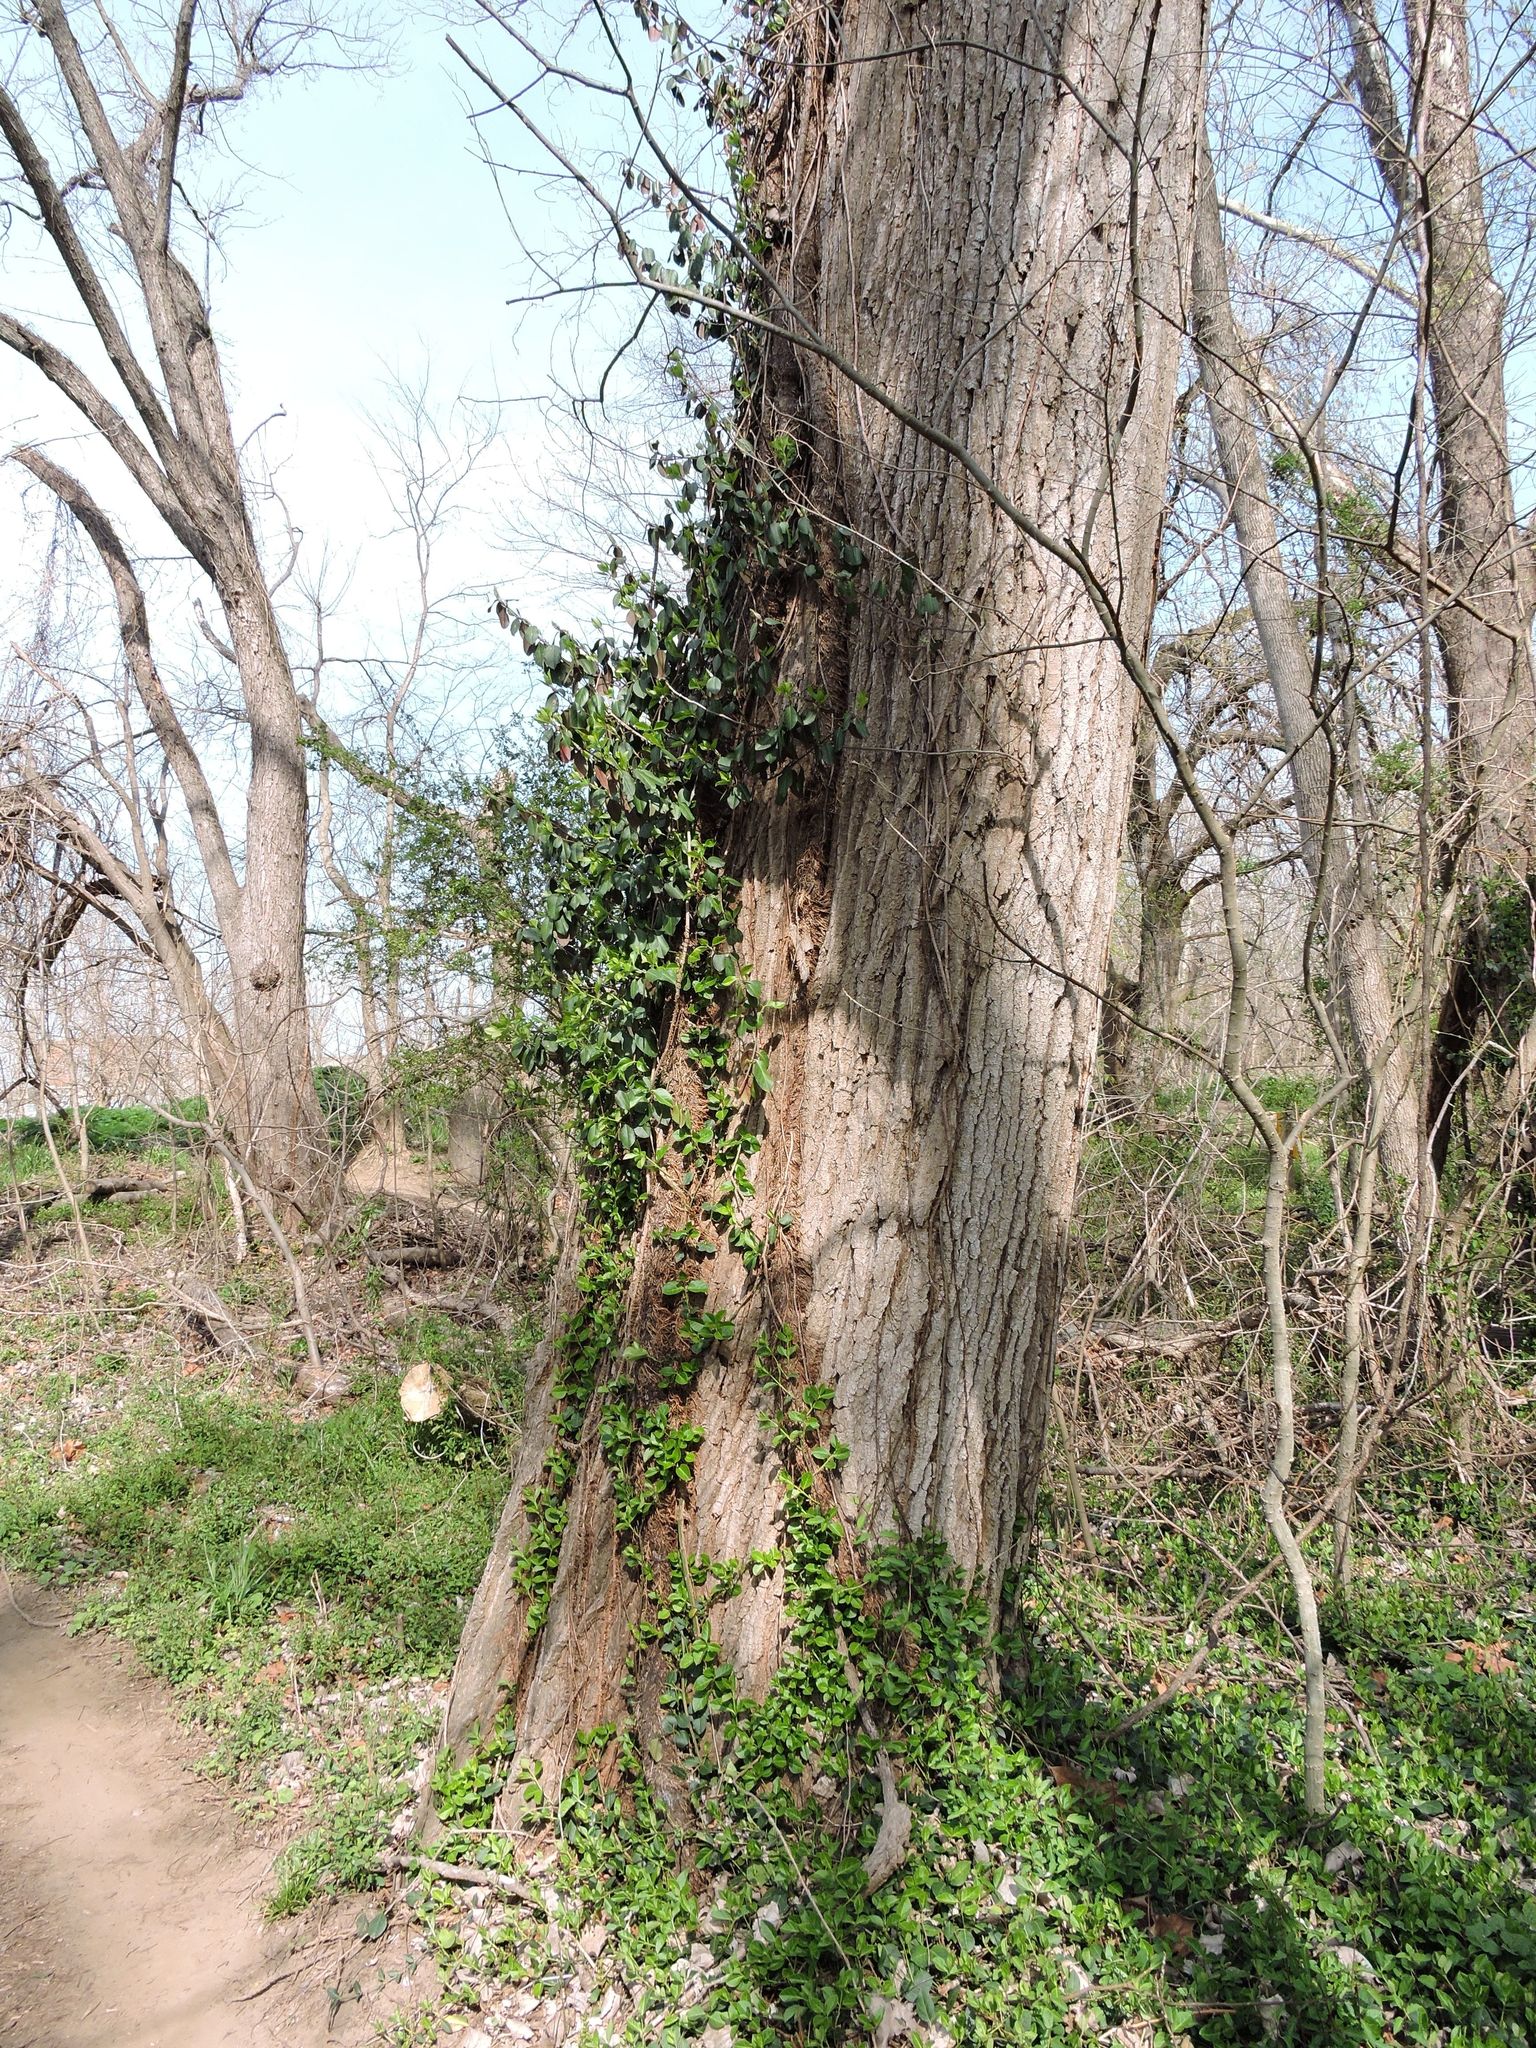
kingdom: Plantae
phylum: Tracheophyta
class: Magnoliopsida
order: Celastrales
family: Celastraceae
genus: Euonymus
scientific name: Euonymus fortunei
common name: Climbing euonymus
